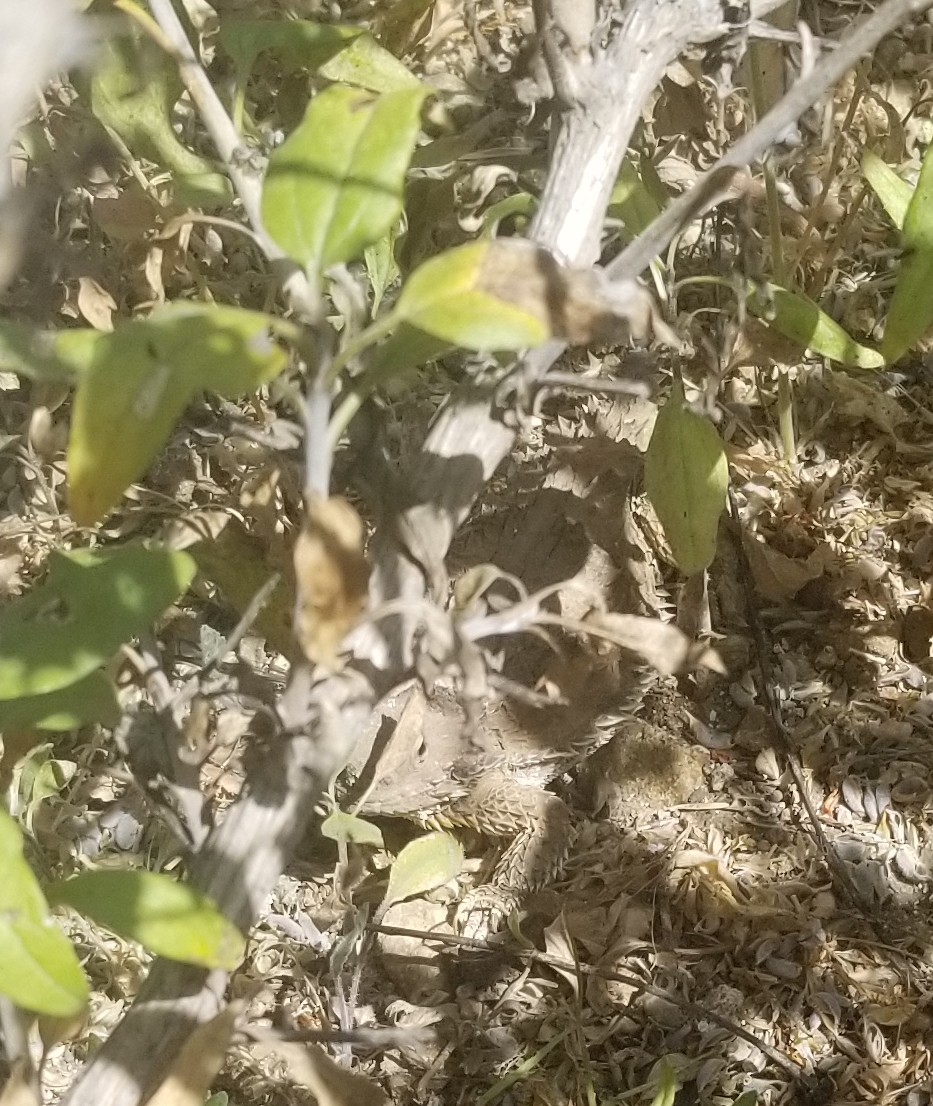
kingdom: Animalia
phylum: Chordata
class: Squamata
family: Phrynosomatidae
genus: Phrynosoma
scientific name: Phrynosoma blainvillii
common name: San diego horned lizard
